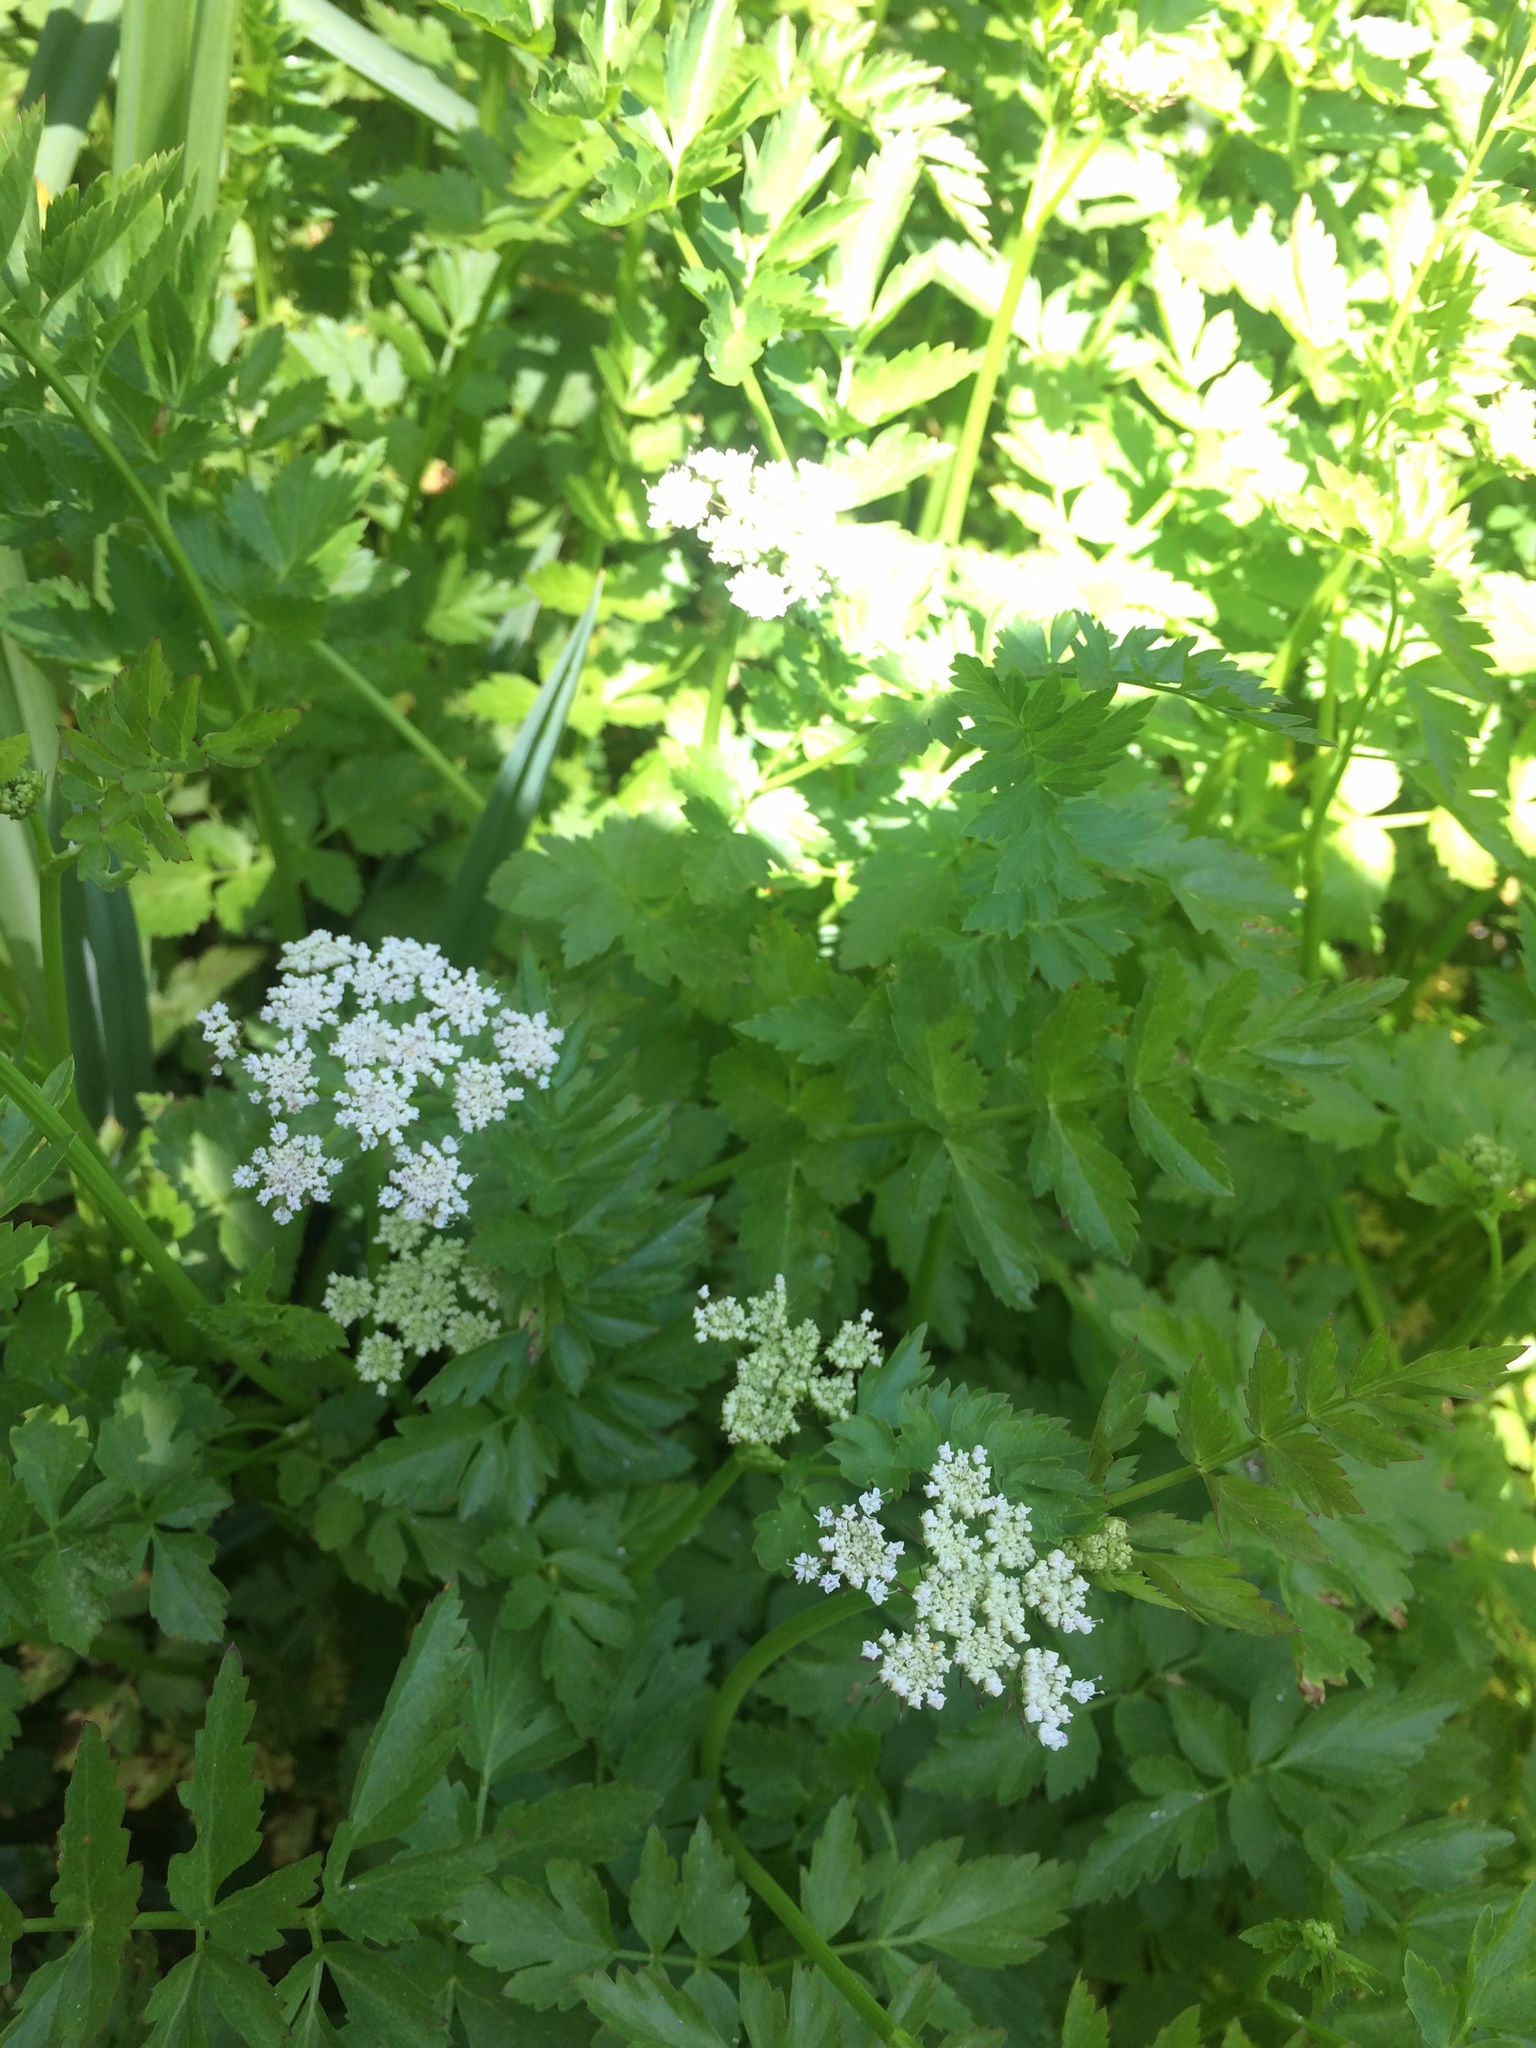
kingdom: Plantae
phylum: Tracheophyta
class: Magnoliopsida
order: Apiales
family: Apiaceae
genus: Oenanthe
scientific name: Oenanthe sarmentosa
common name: American water-parsley
